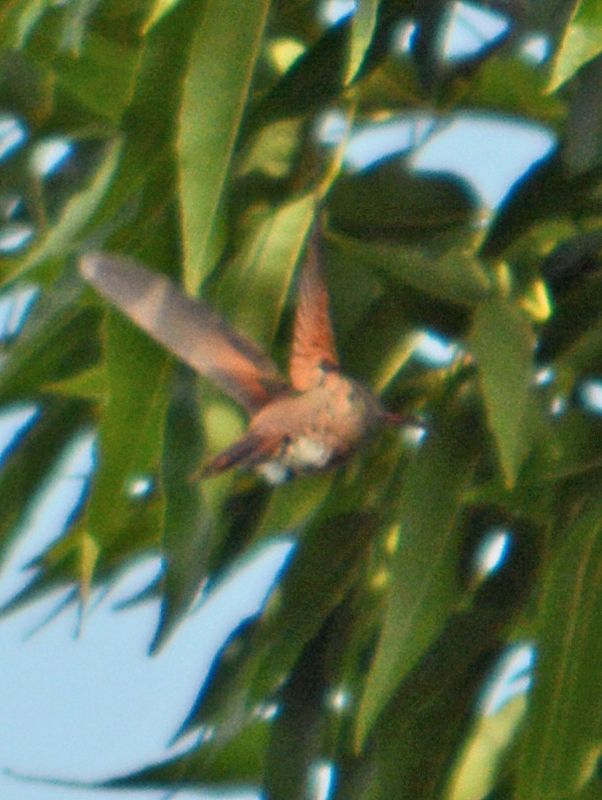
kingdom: Animalia
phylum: Chordata
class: Aves
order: Apodiformes
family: Trochilidae
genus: Saucerottia
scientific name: Saucerottia beryllina
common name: Berylline hummingbird
